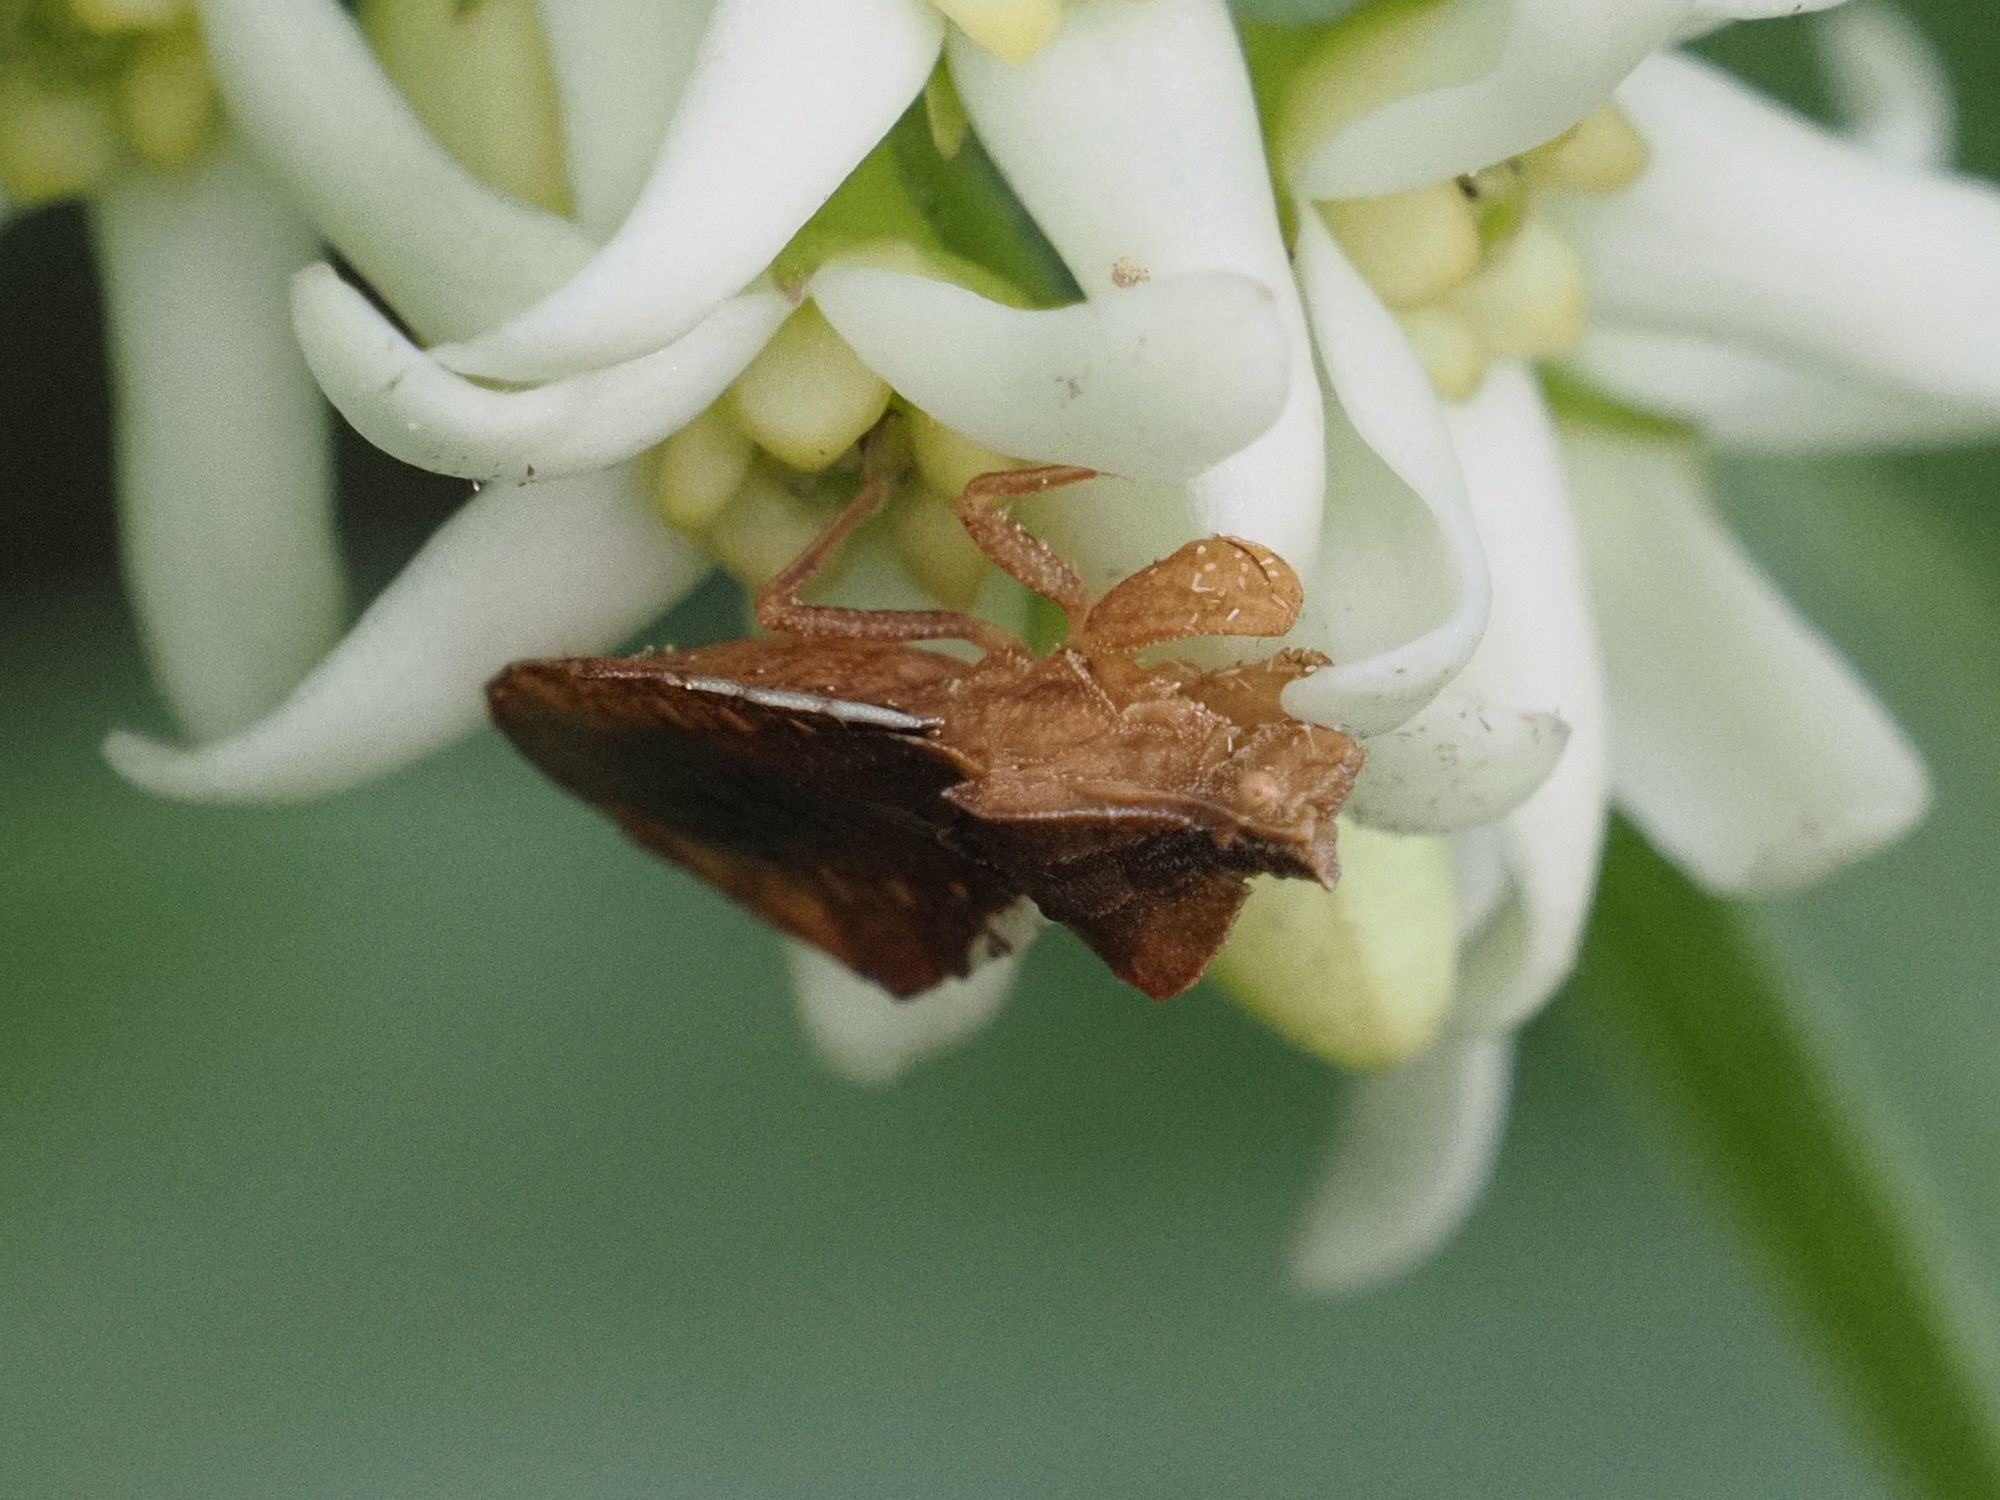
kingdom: Animalia
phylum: Arthropoda
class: Insecta
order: Hemiptera
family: Reduviidae
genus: Phymata
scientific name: Phymata crassipes
